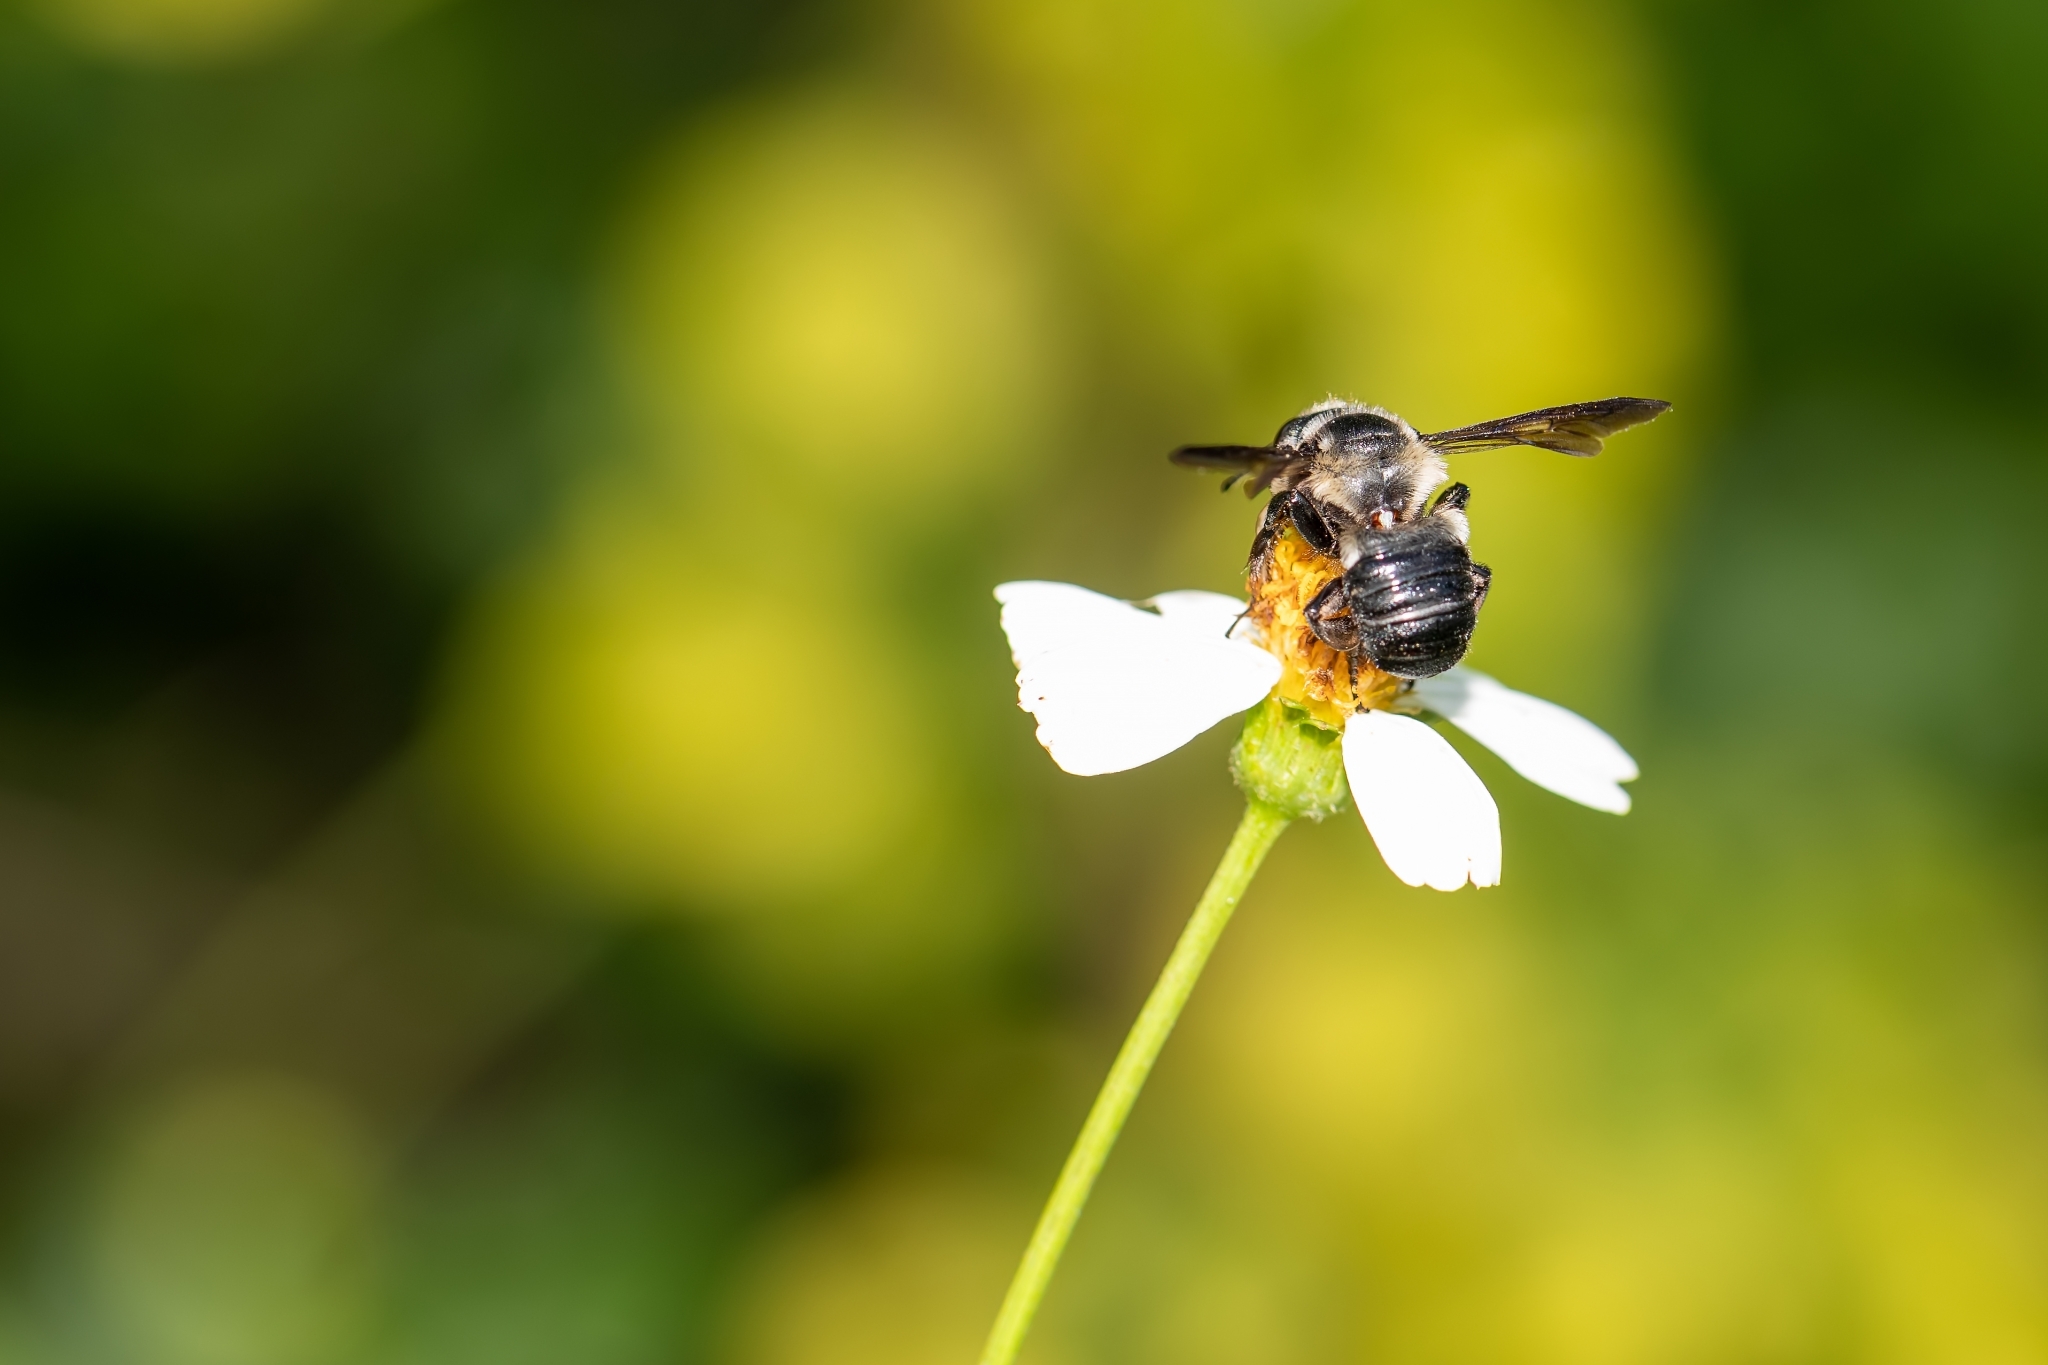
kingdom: Animalia
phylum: Arthropoda
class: Insecta
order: Hymenoptera
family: Megachilidae
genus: Megachile
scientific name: Megachile xylocopoides
